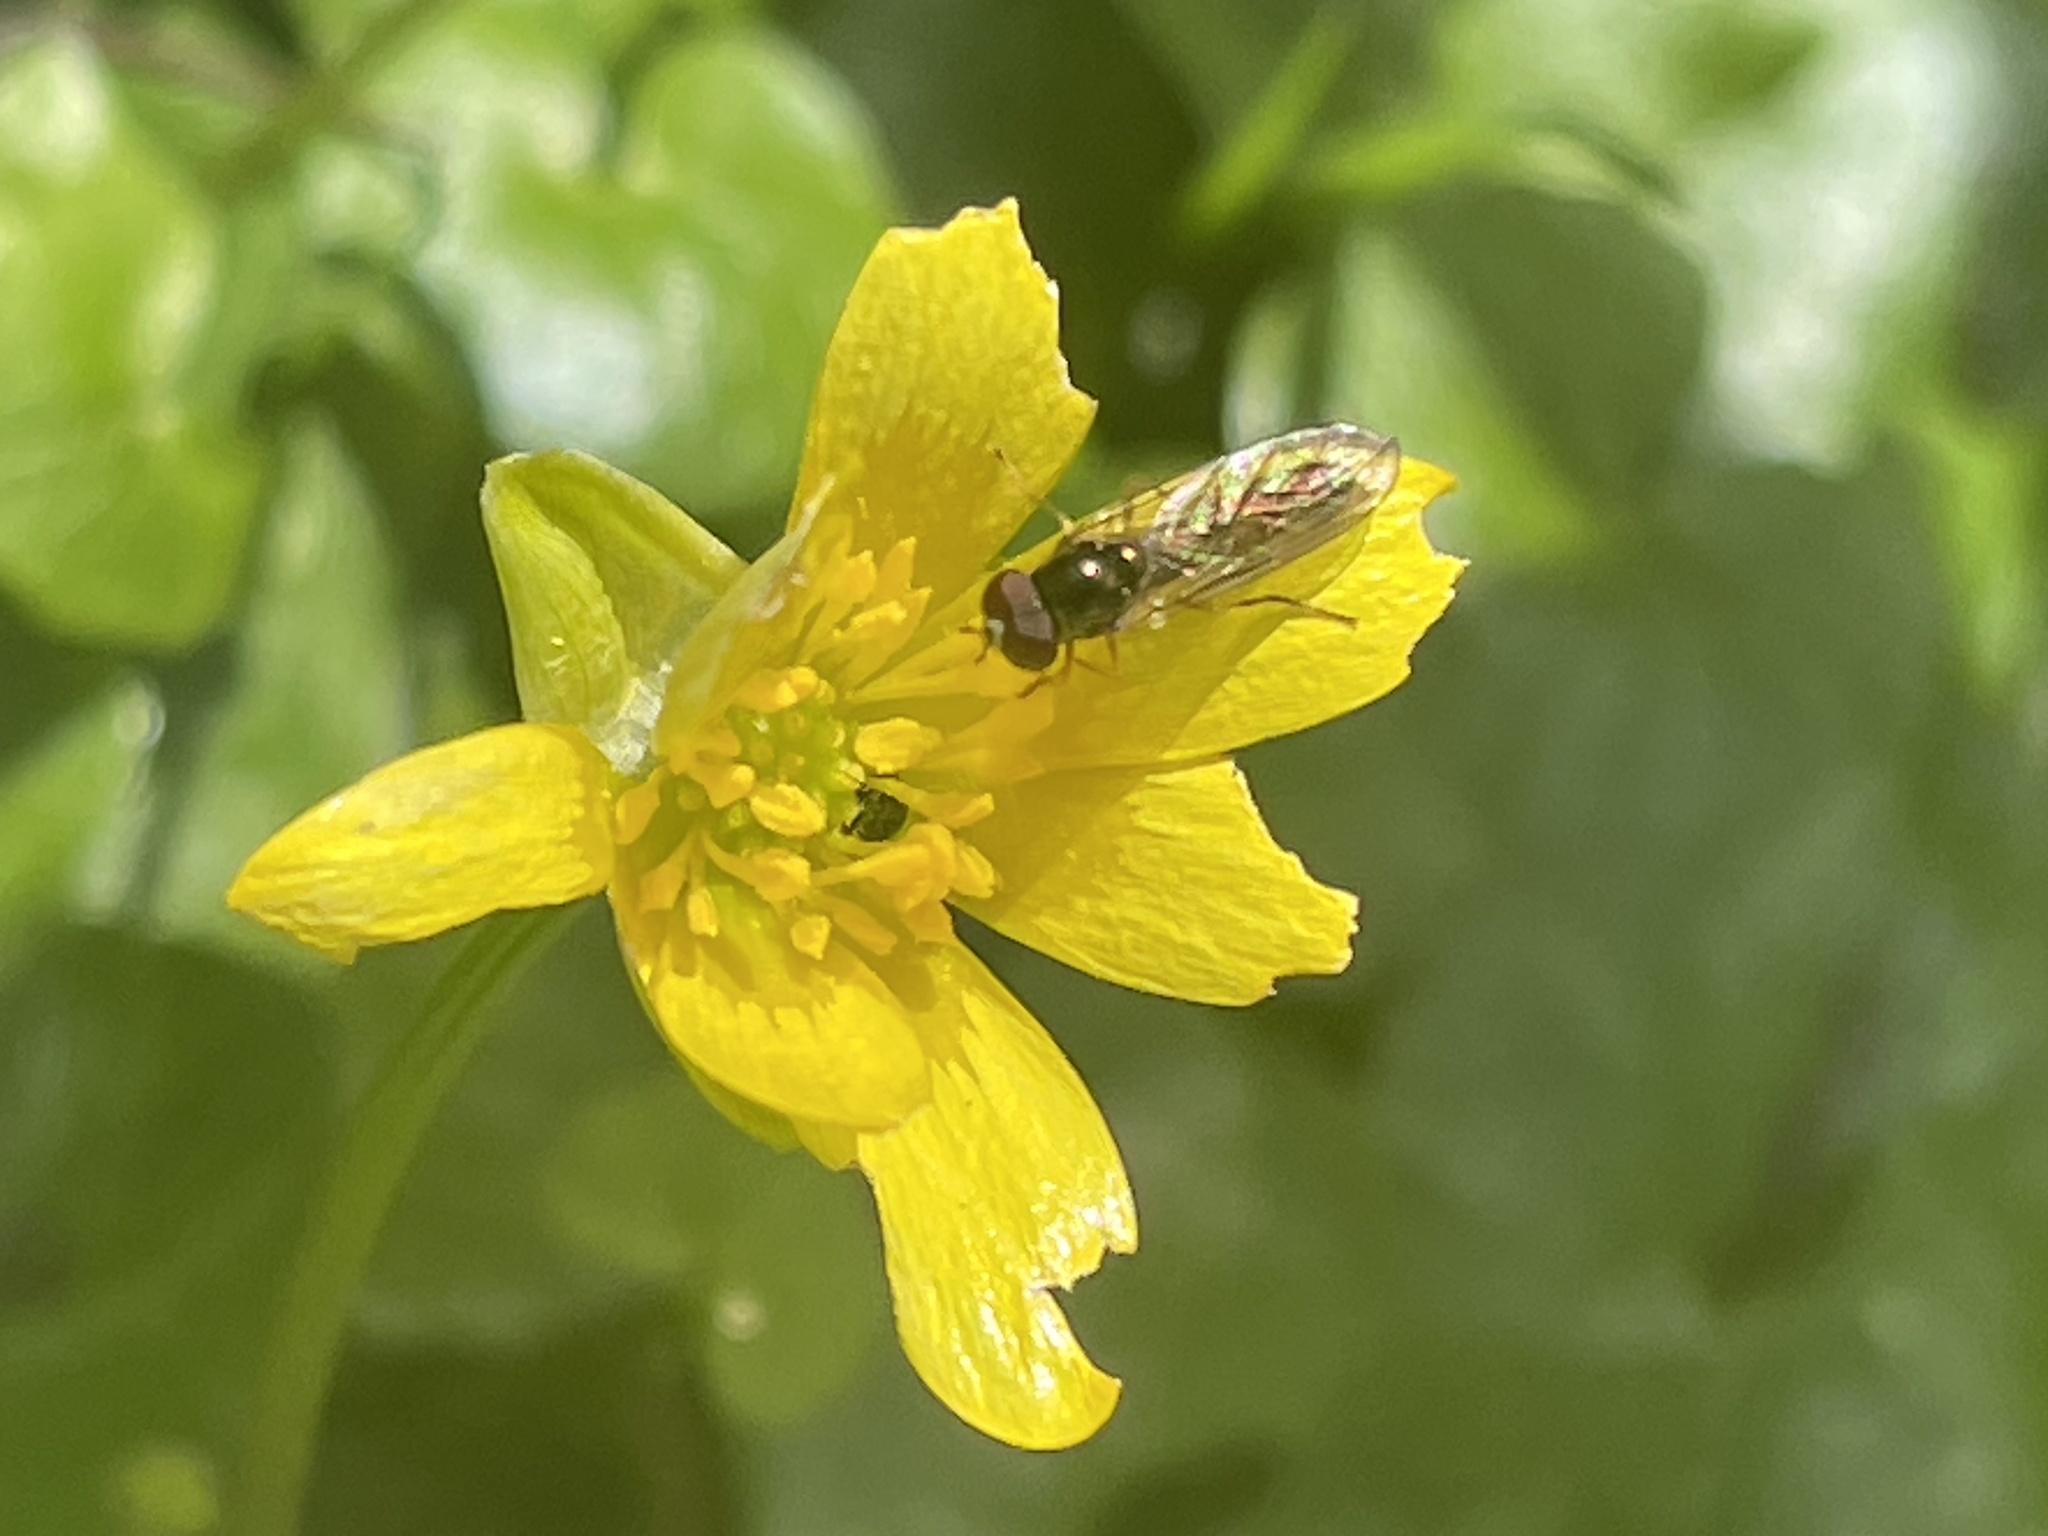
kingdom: Plantae
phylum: Tracheophyta
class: Magnoliopsida
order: Ranunculales
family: Ranunculaceae
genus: Ficaria
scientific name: Ficaria verna
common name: Lesser celandine
